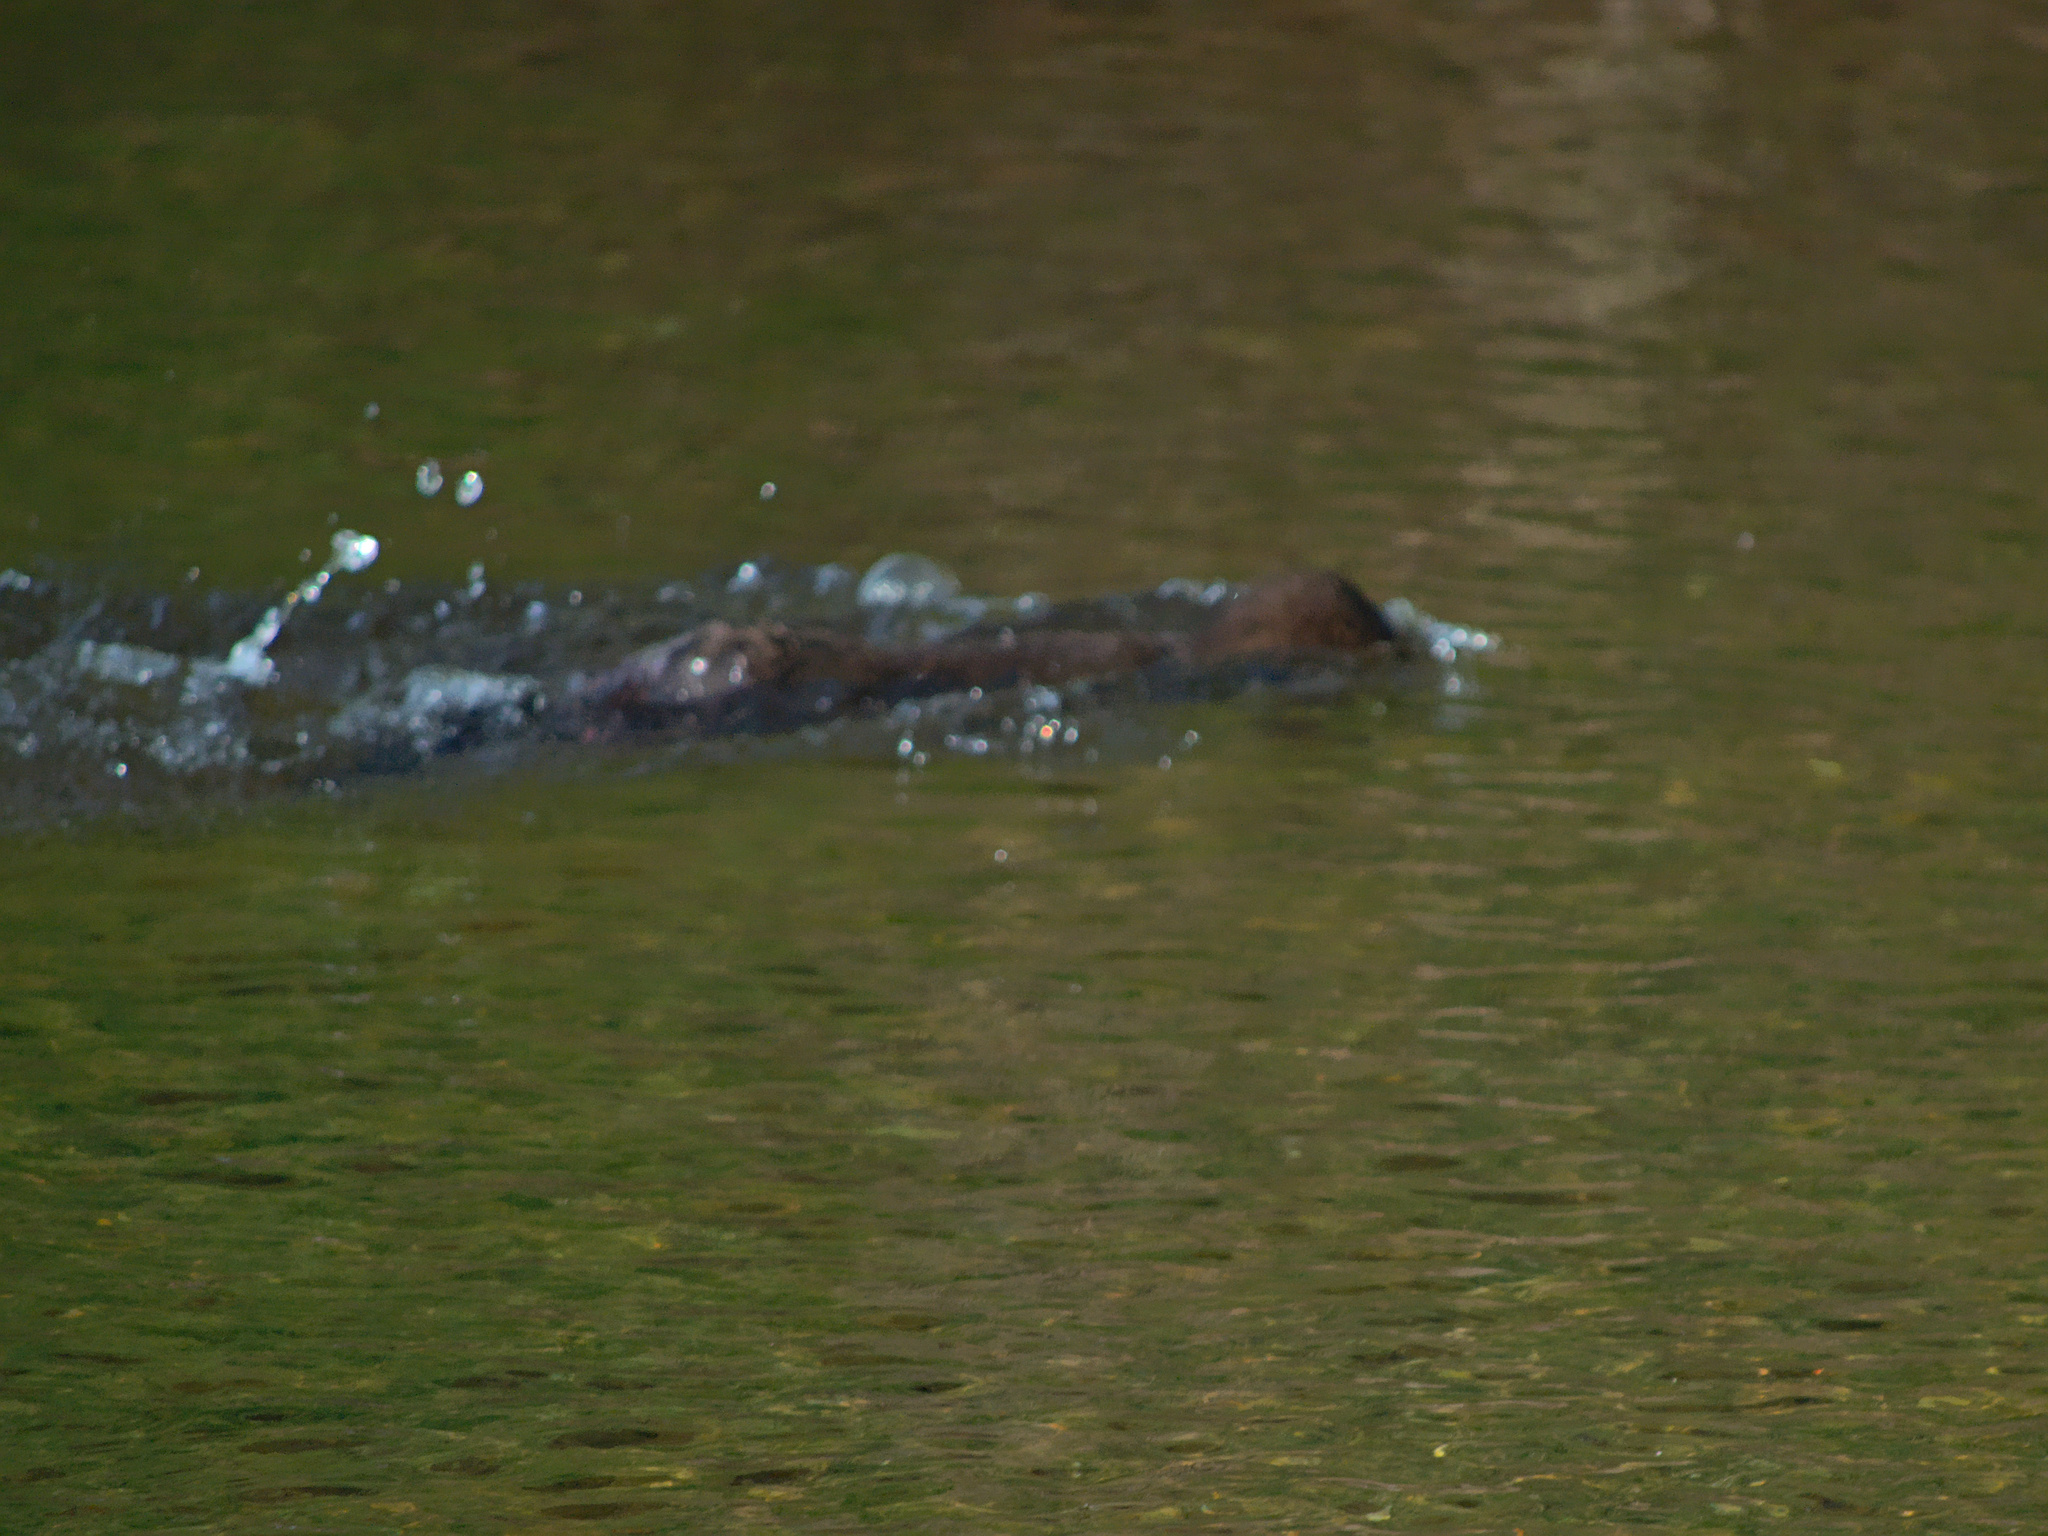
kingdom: Animalia
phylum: Chordata
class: Mammalia
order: Carnivora
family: Mustelidae
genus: Mustela
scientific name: Mustela
